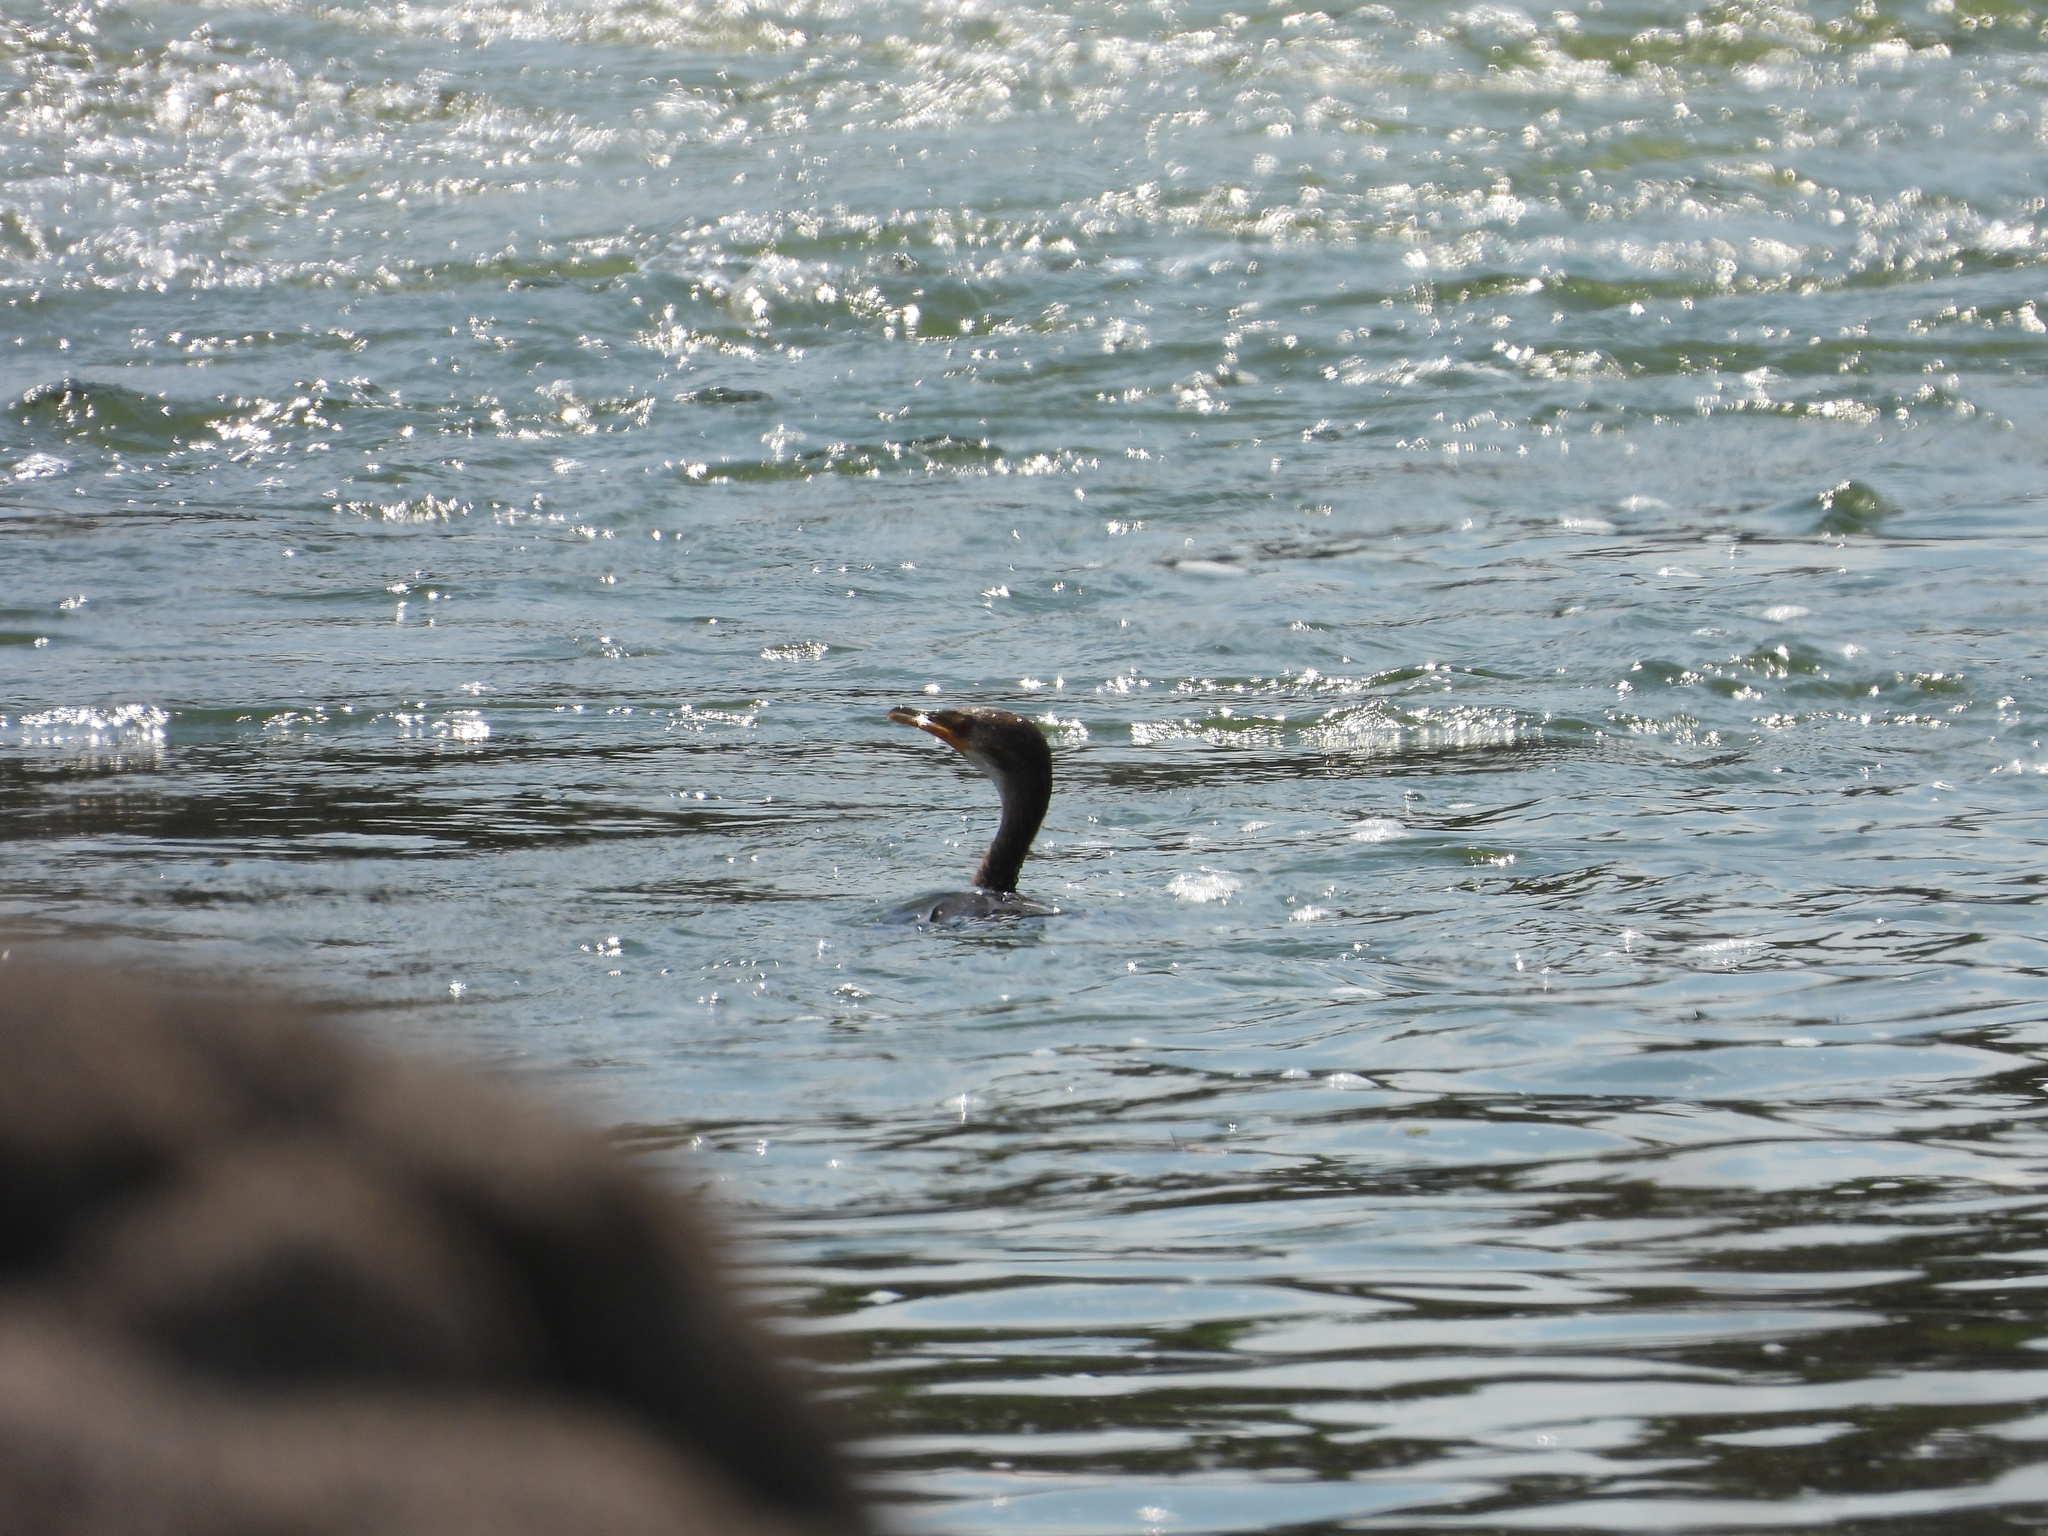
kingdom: Animalia
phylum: Chordata
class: Aves
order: Suliformes
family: Phalacrocoracidae
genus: Microcarbo
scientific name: Microcarbo africanus
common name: Long-tailed cormorant
